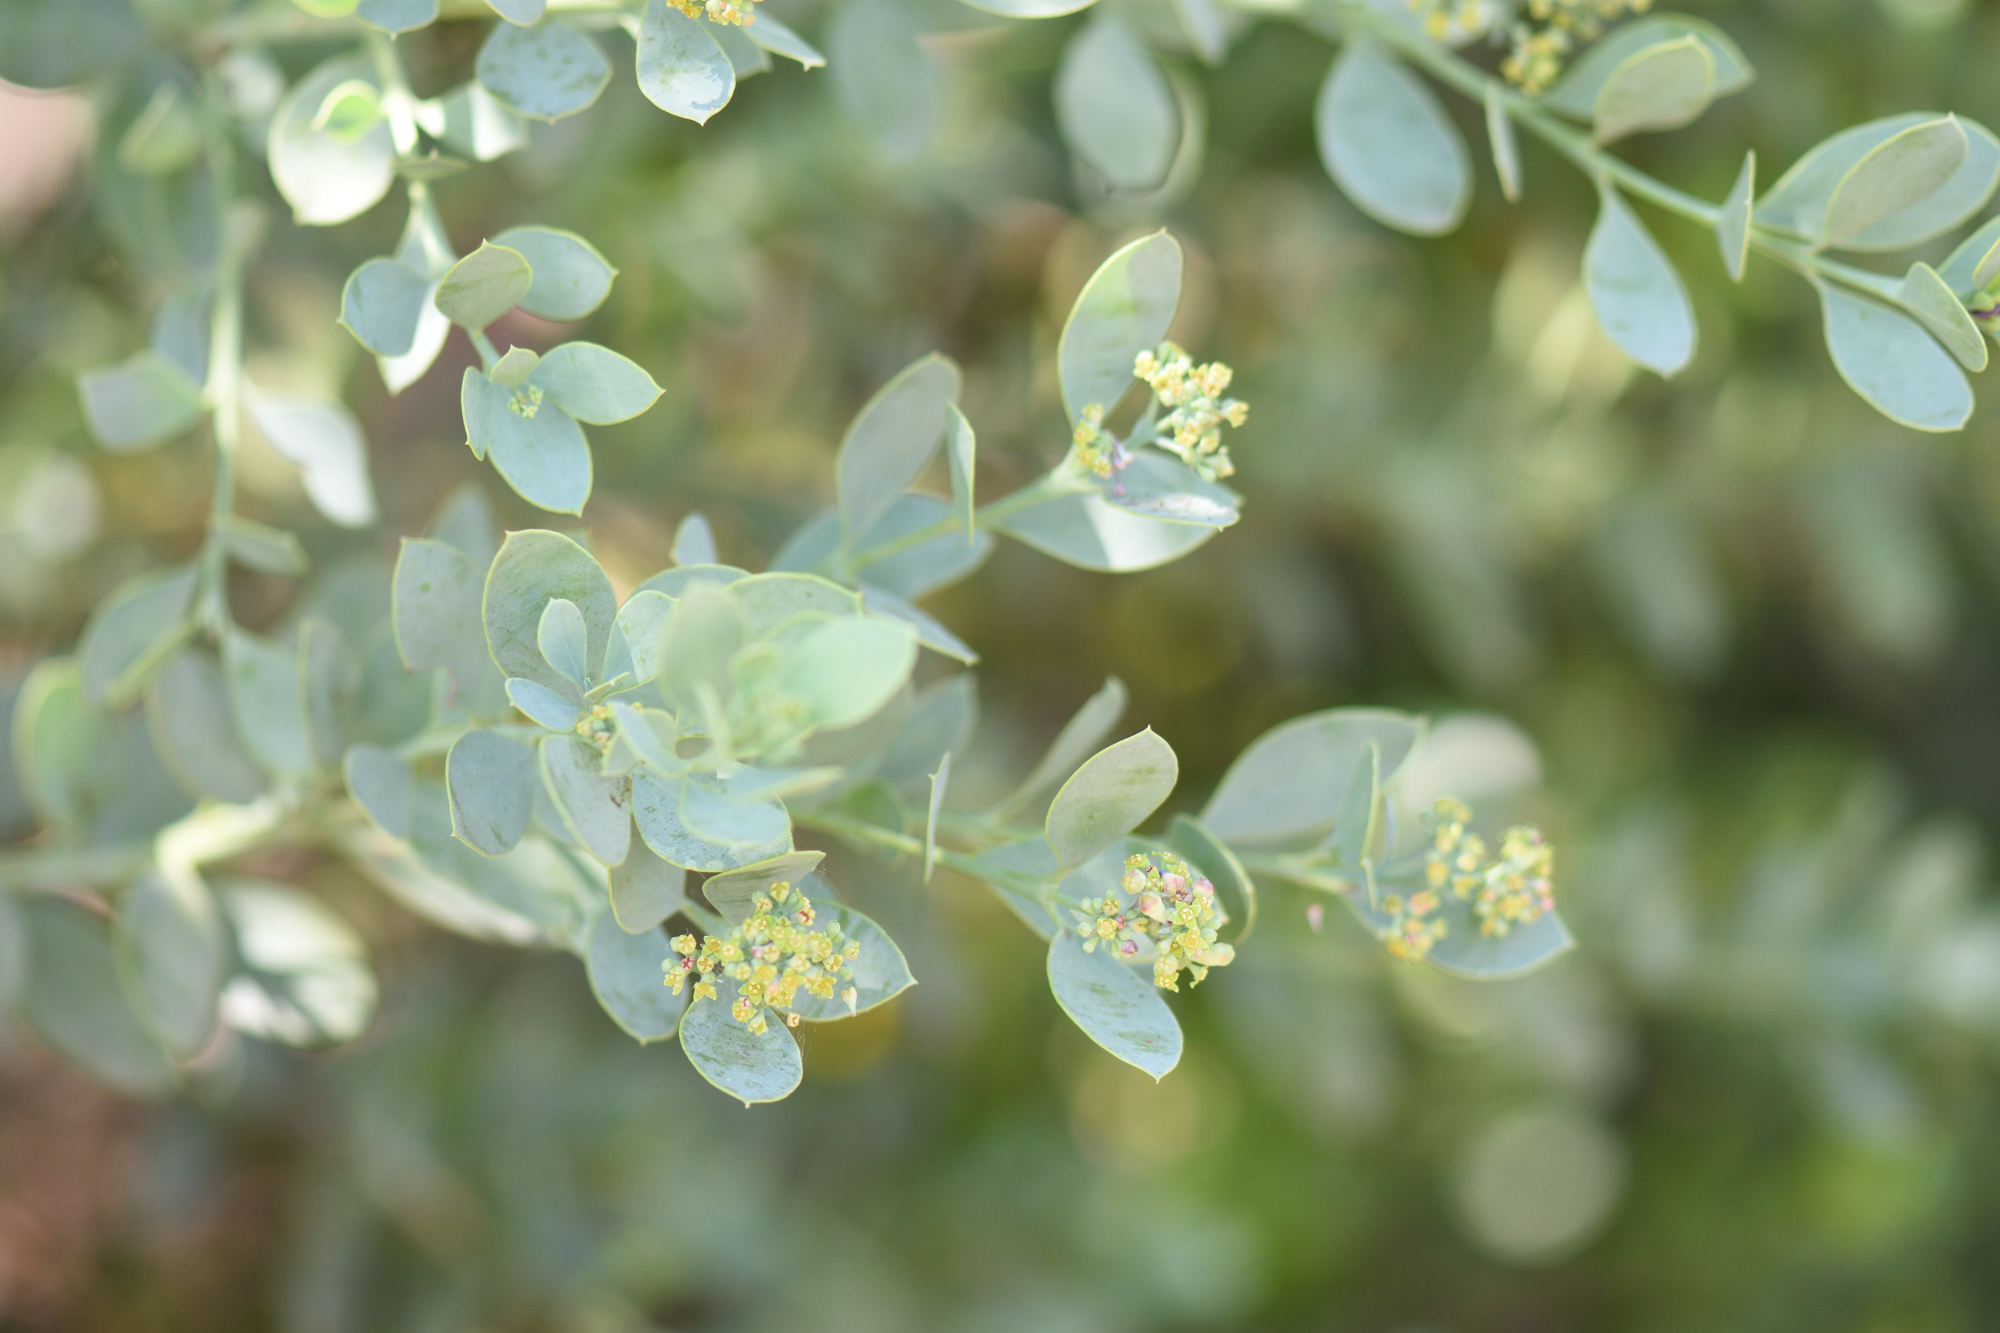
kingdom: Plantae
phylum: Tracheophyta
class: Magnoliopsida
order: Santalales
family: Santalaceae
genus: Osyris
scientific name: Osyris compressa
